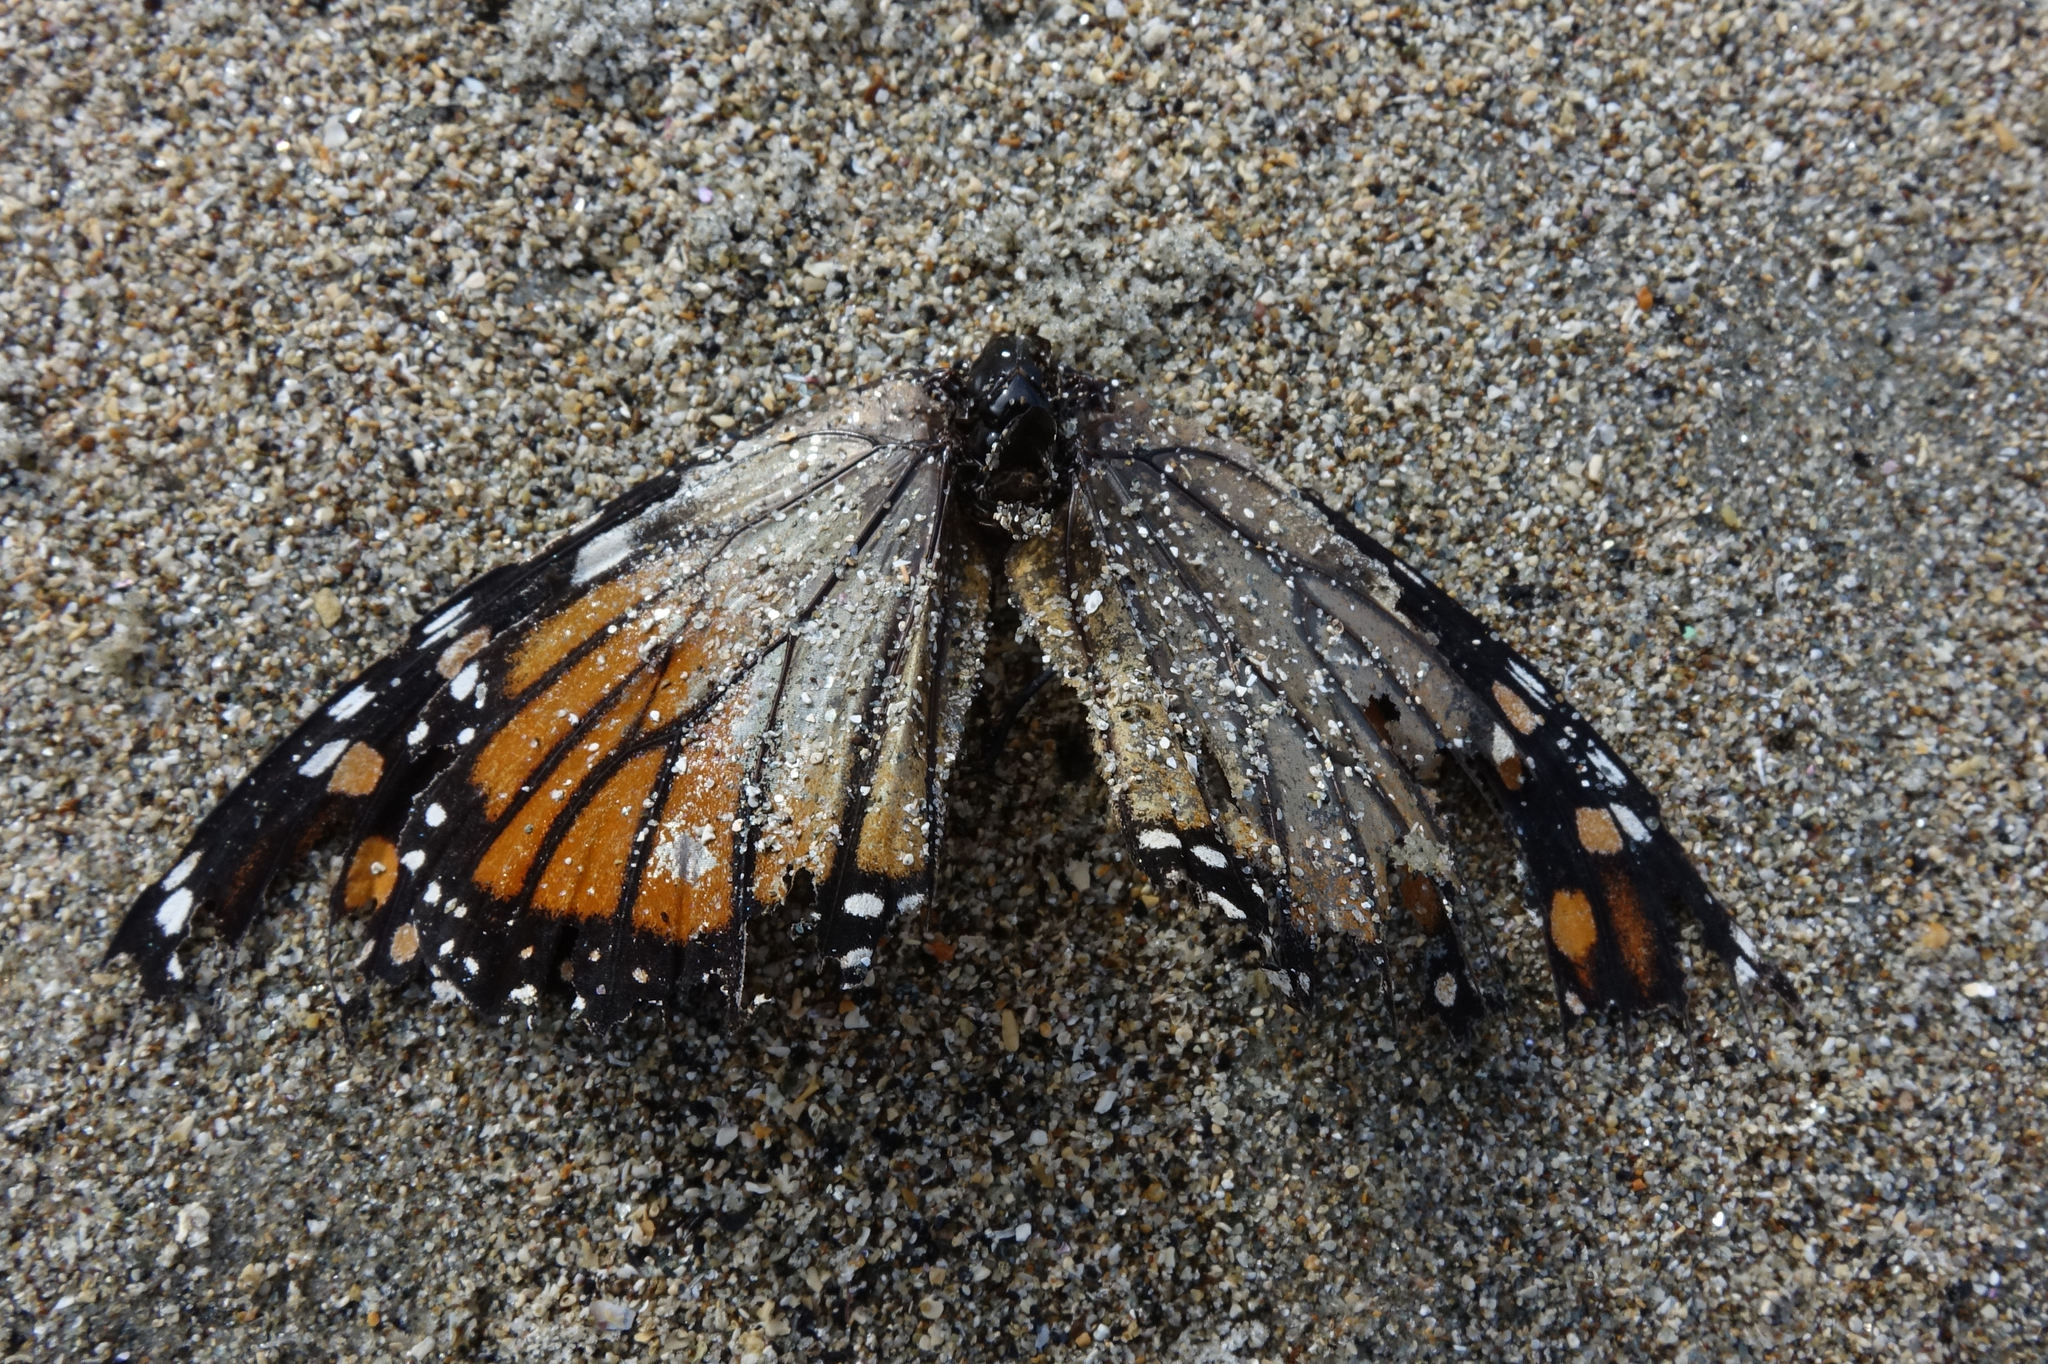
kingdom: Animalia
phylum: Arthropoda
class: Insecta
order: Lepidoptera
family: Nymphalidae
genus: Danaus
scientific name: Danaus plexippus
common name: Monarch
